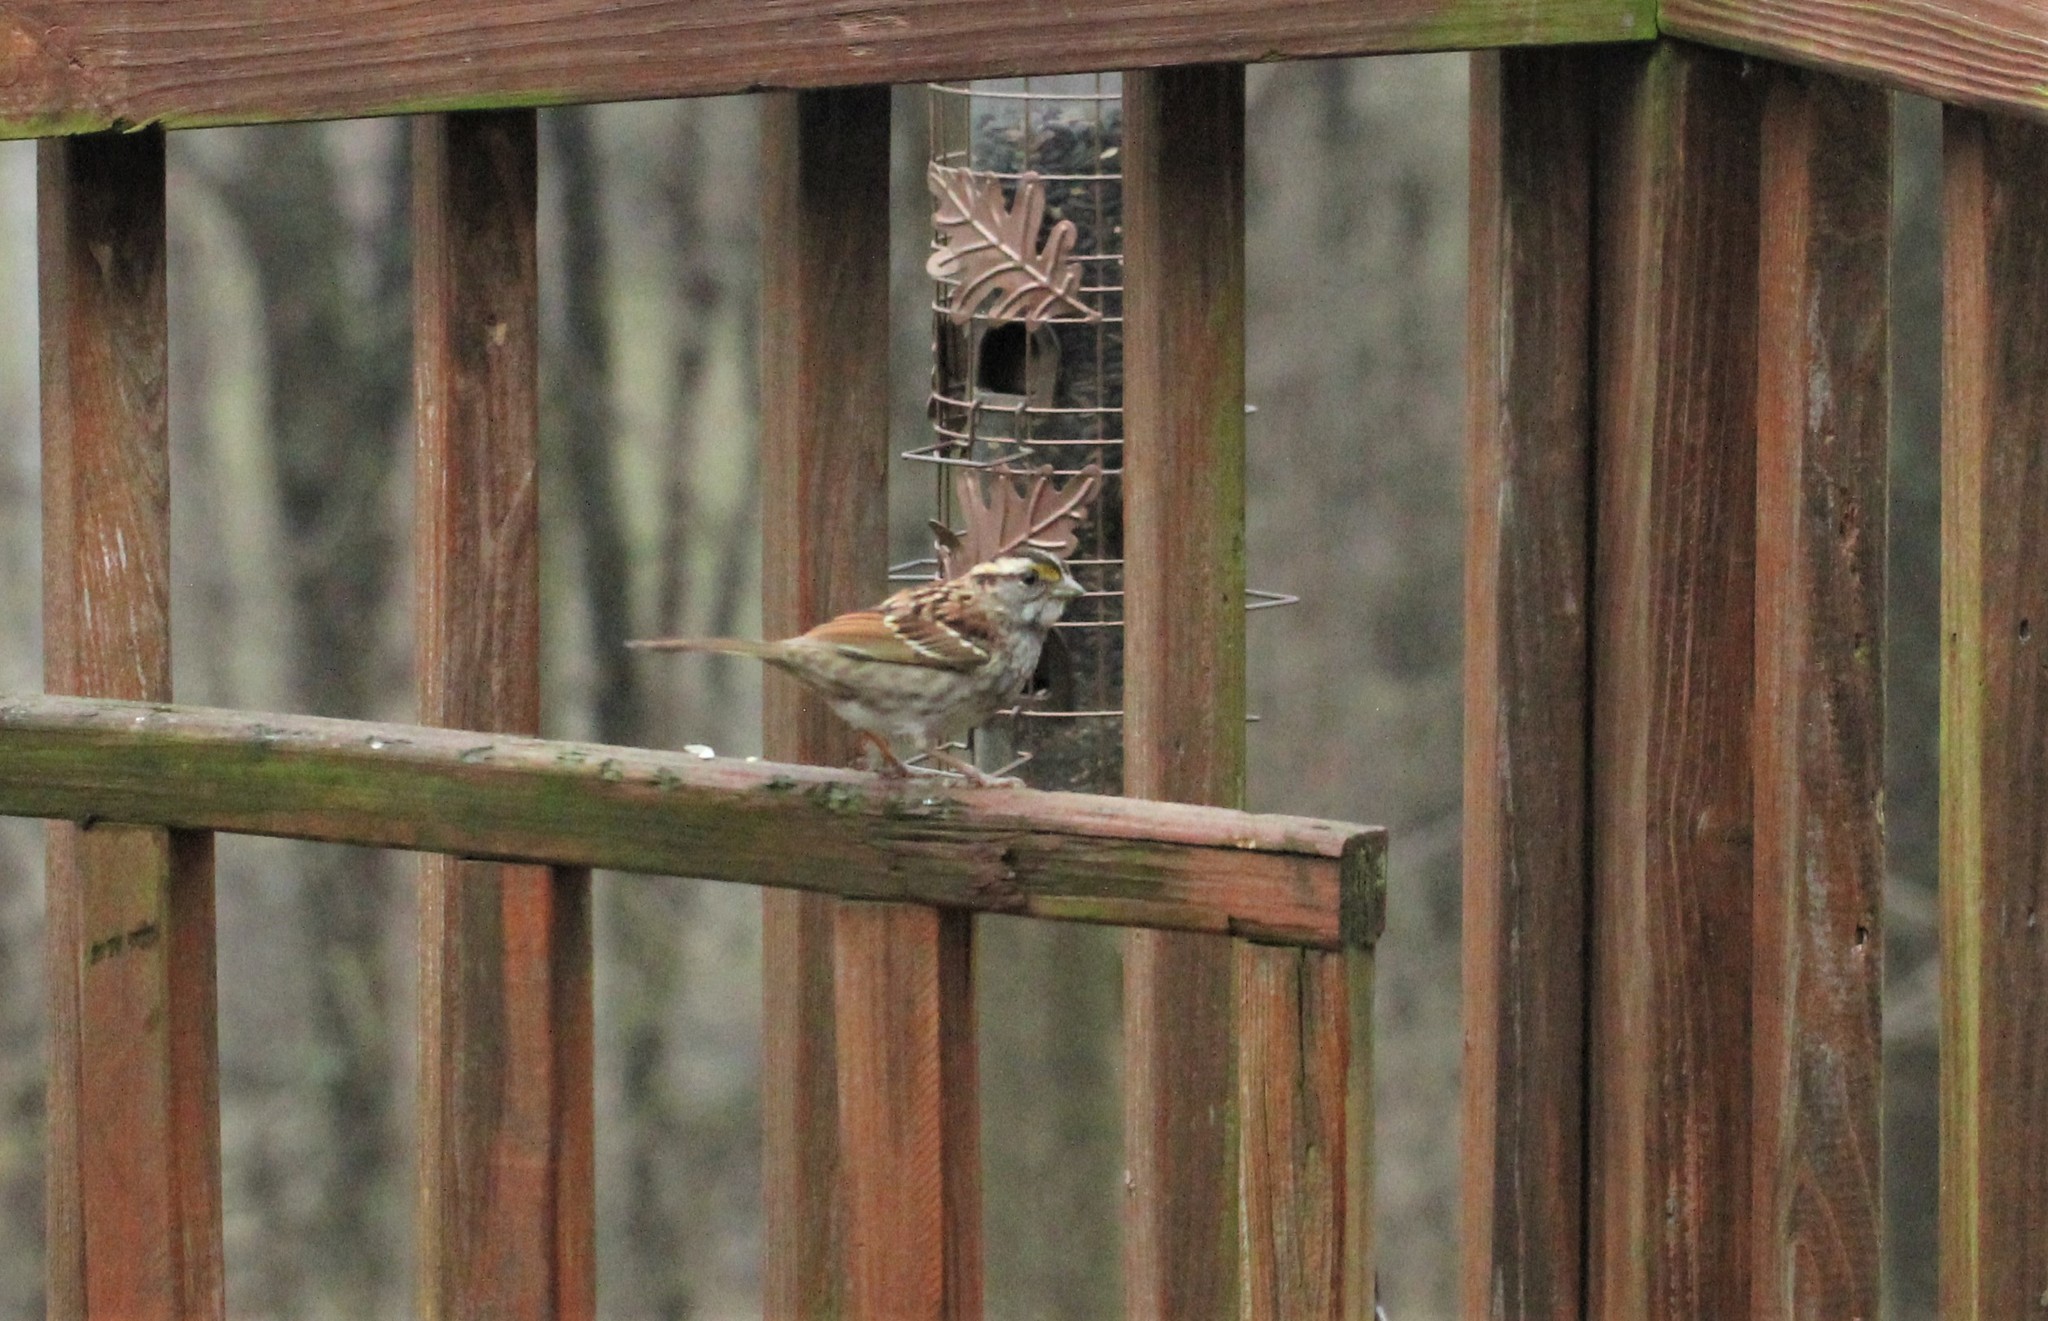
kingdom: Animalia
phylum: Chordata
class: Aves
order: Passeriformes
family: Passerellidae
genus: Zonotrichia
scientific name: Zonotrichia albicollis
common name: White-throated sparrow
